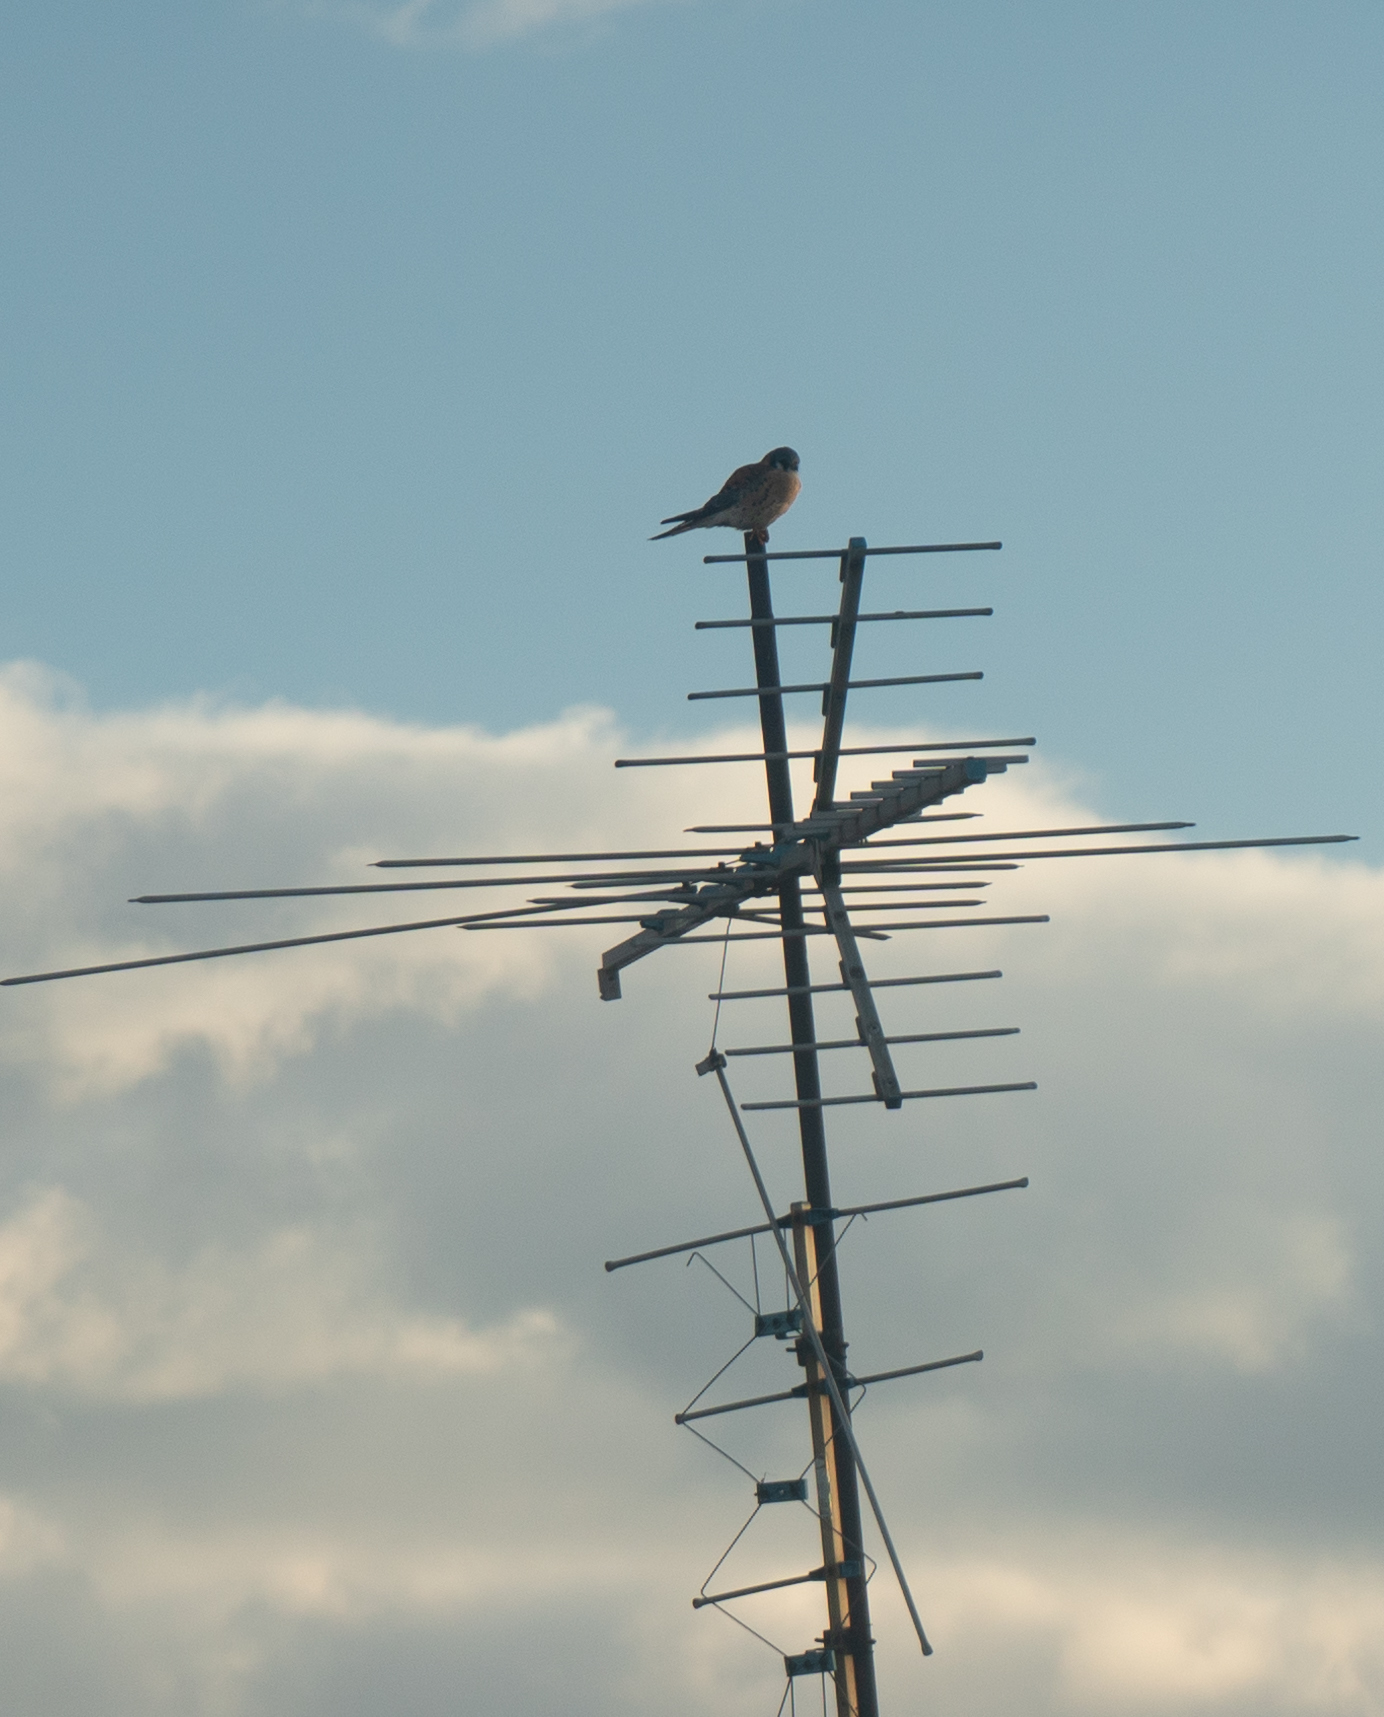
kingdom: Animalia
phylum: Chordata
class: Aves
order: Falconiformes
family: Falconidae
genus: Falco
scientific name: Falco sparverius
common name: American kestrel
